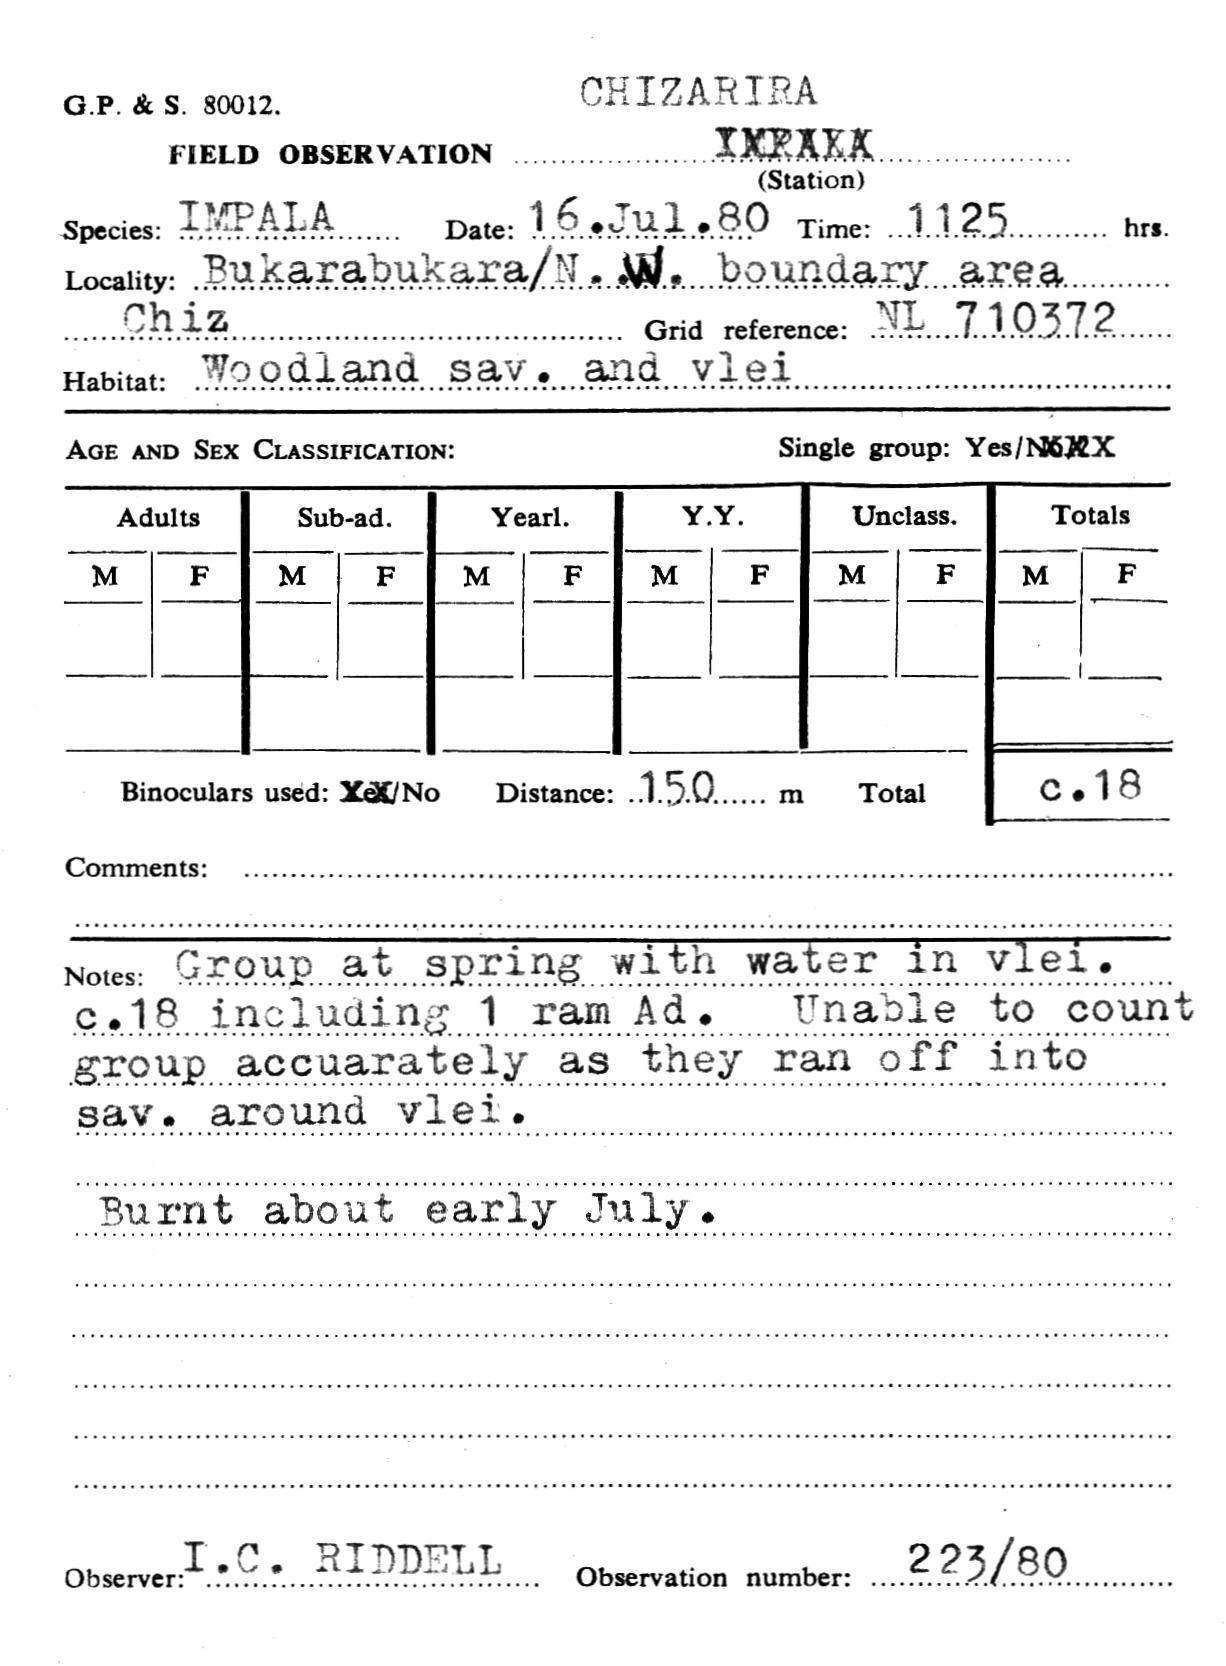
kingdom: Animalia
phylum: Chordata
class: Mammalia
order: Artiodactyla
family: Bovidae
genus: Aepyceros
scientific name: Aepyceros melampus
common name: Impala
